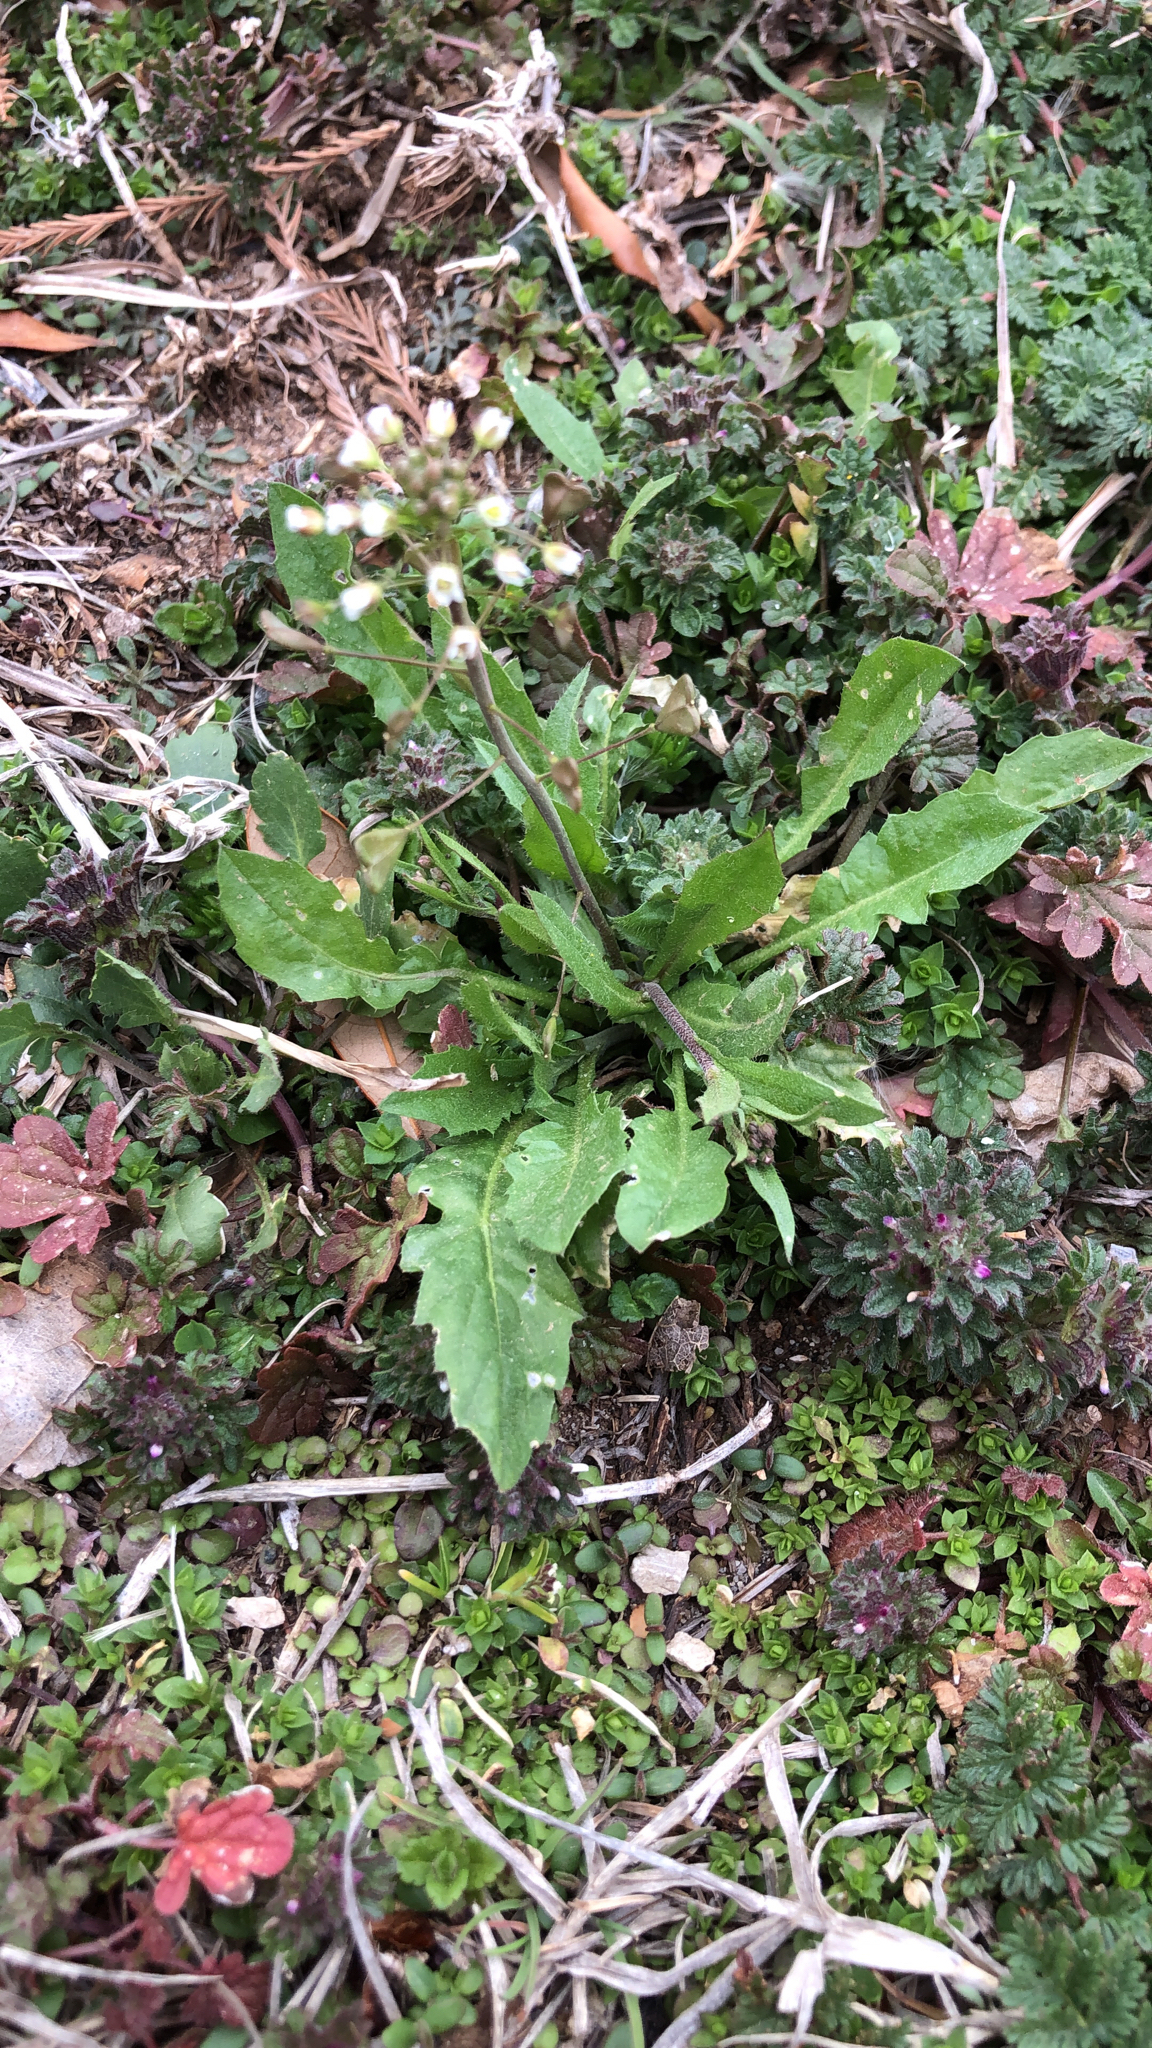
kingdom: Plantae
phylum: Tracheophyta
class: Magnoliopsida
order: Brassicales
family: Brassicaceae
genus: Capsella
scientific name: Capsella bursa-pastoris
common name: Shepherd's purse
